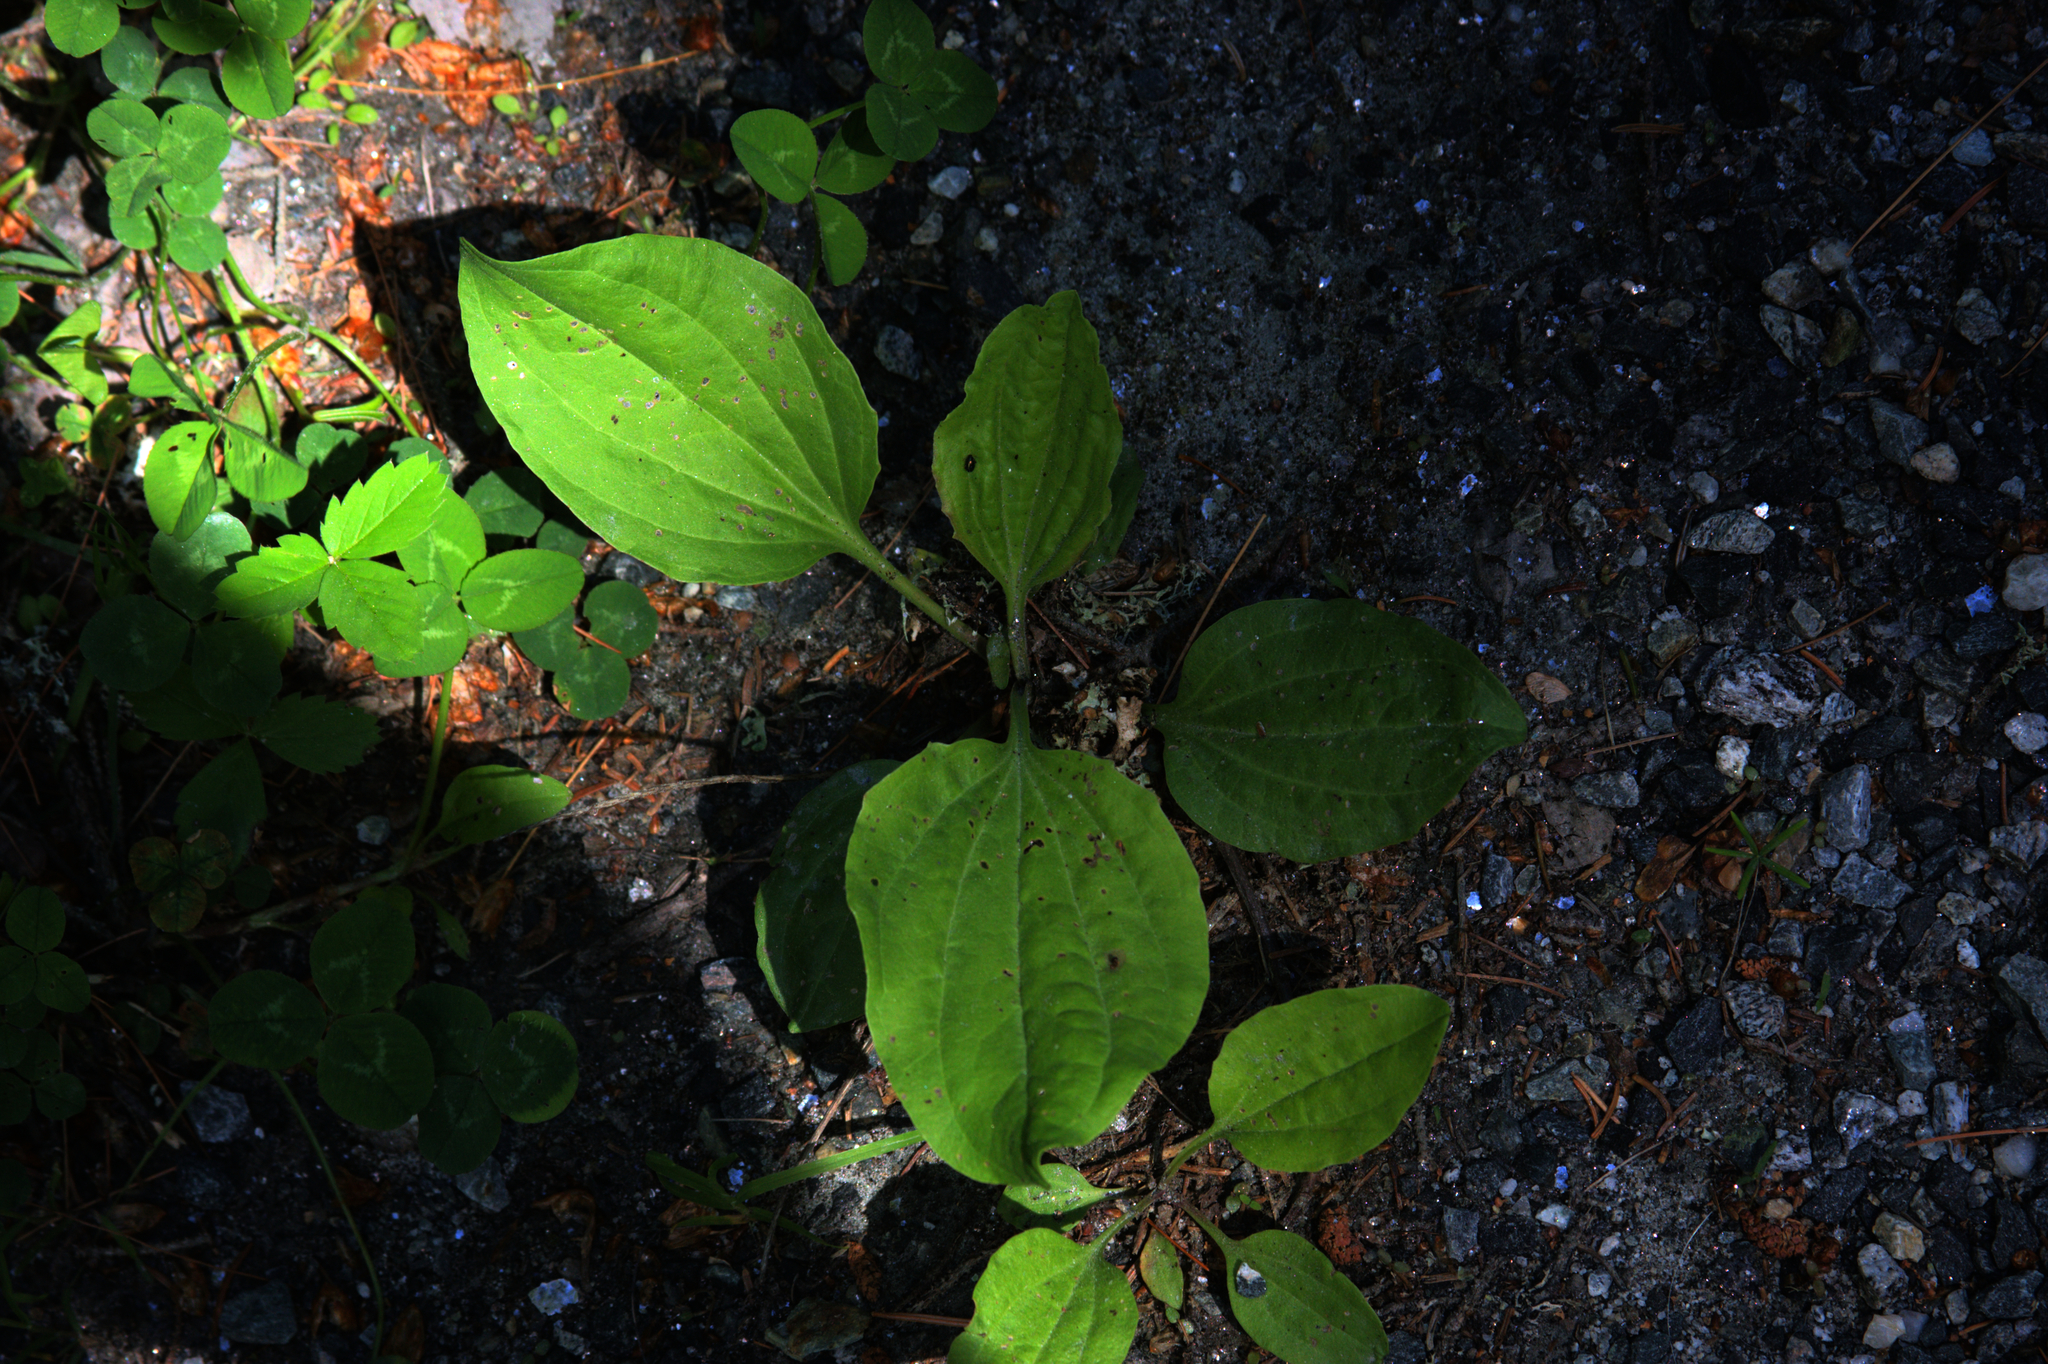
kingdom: Plantae
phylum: Tracheophyta
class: Magnoliopsida
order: Lamiales
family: Plantaginaceae
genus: Plantago
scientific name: Plantago major
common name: Common plantain
